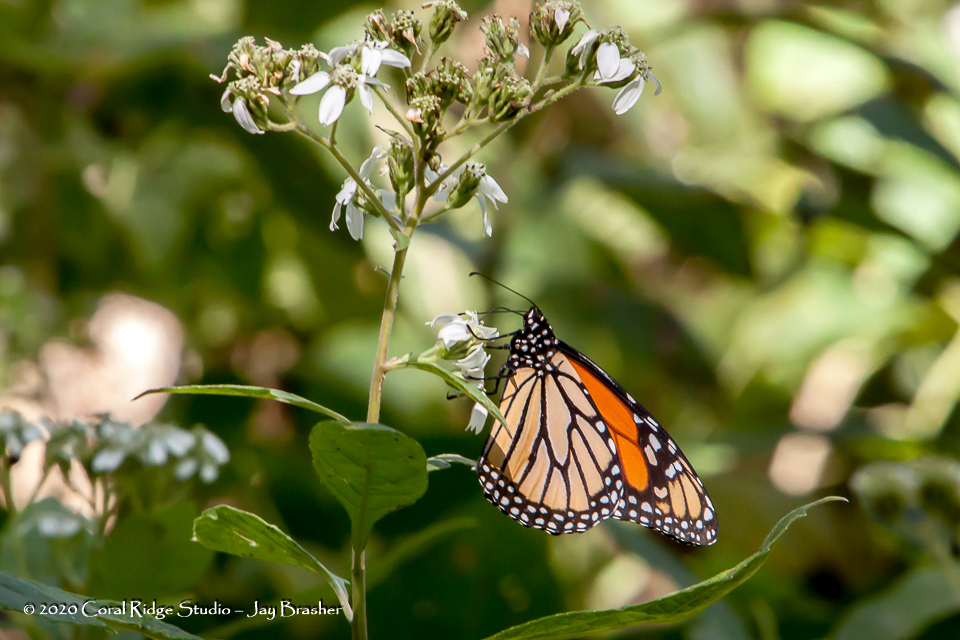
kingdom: Animalia
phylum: Arthropoda
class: Insecta
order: Lepidoptera
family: Nymphalidae
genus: Danaus
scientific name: Danaus plexippus
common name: Monarch
